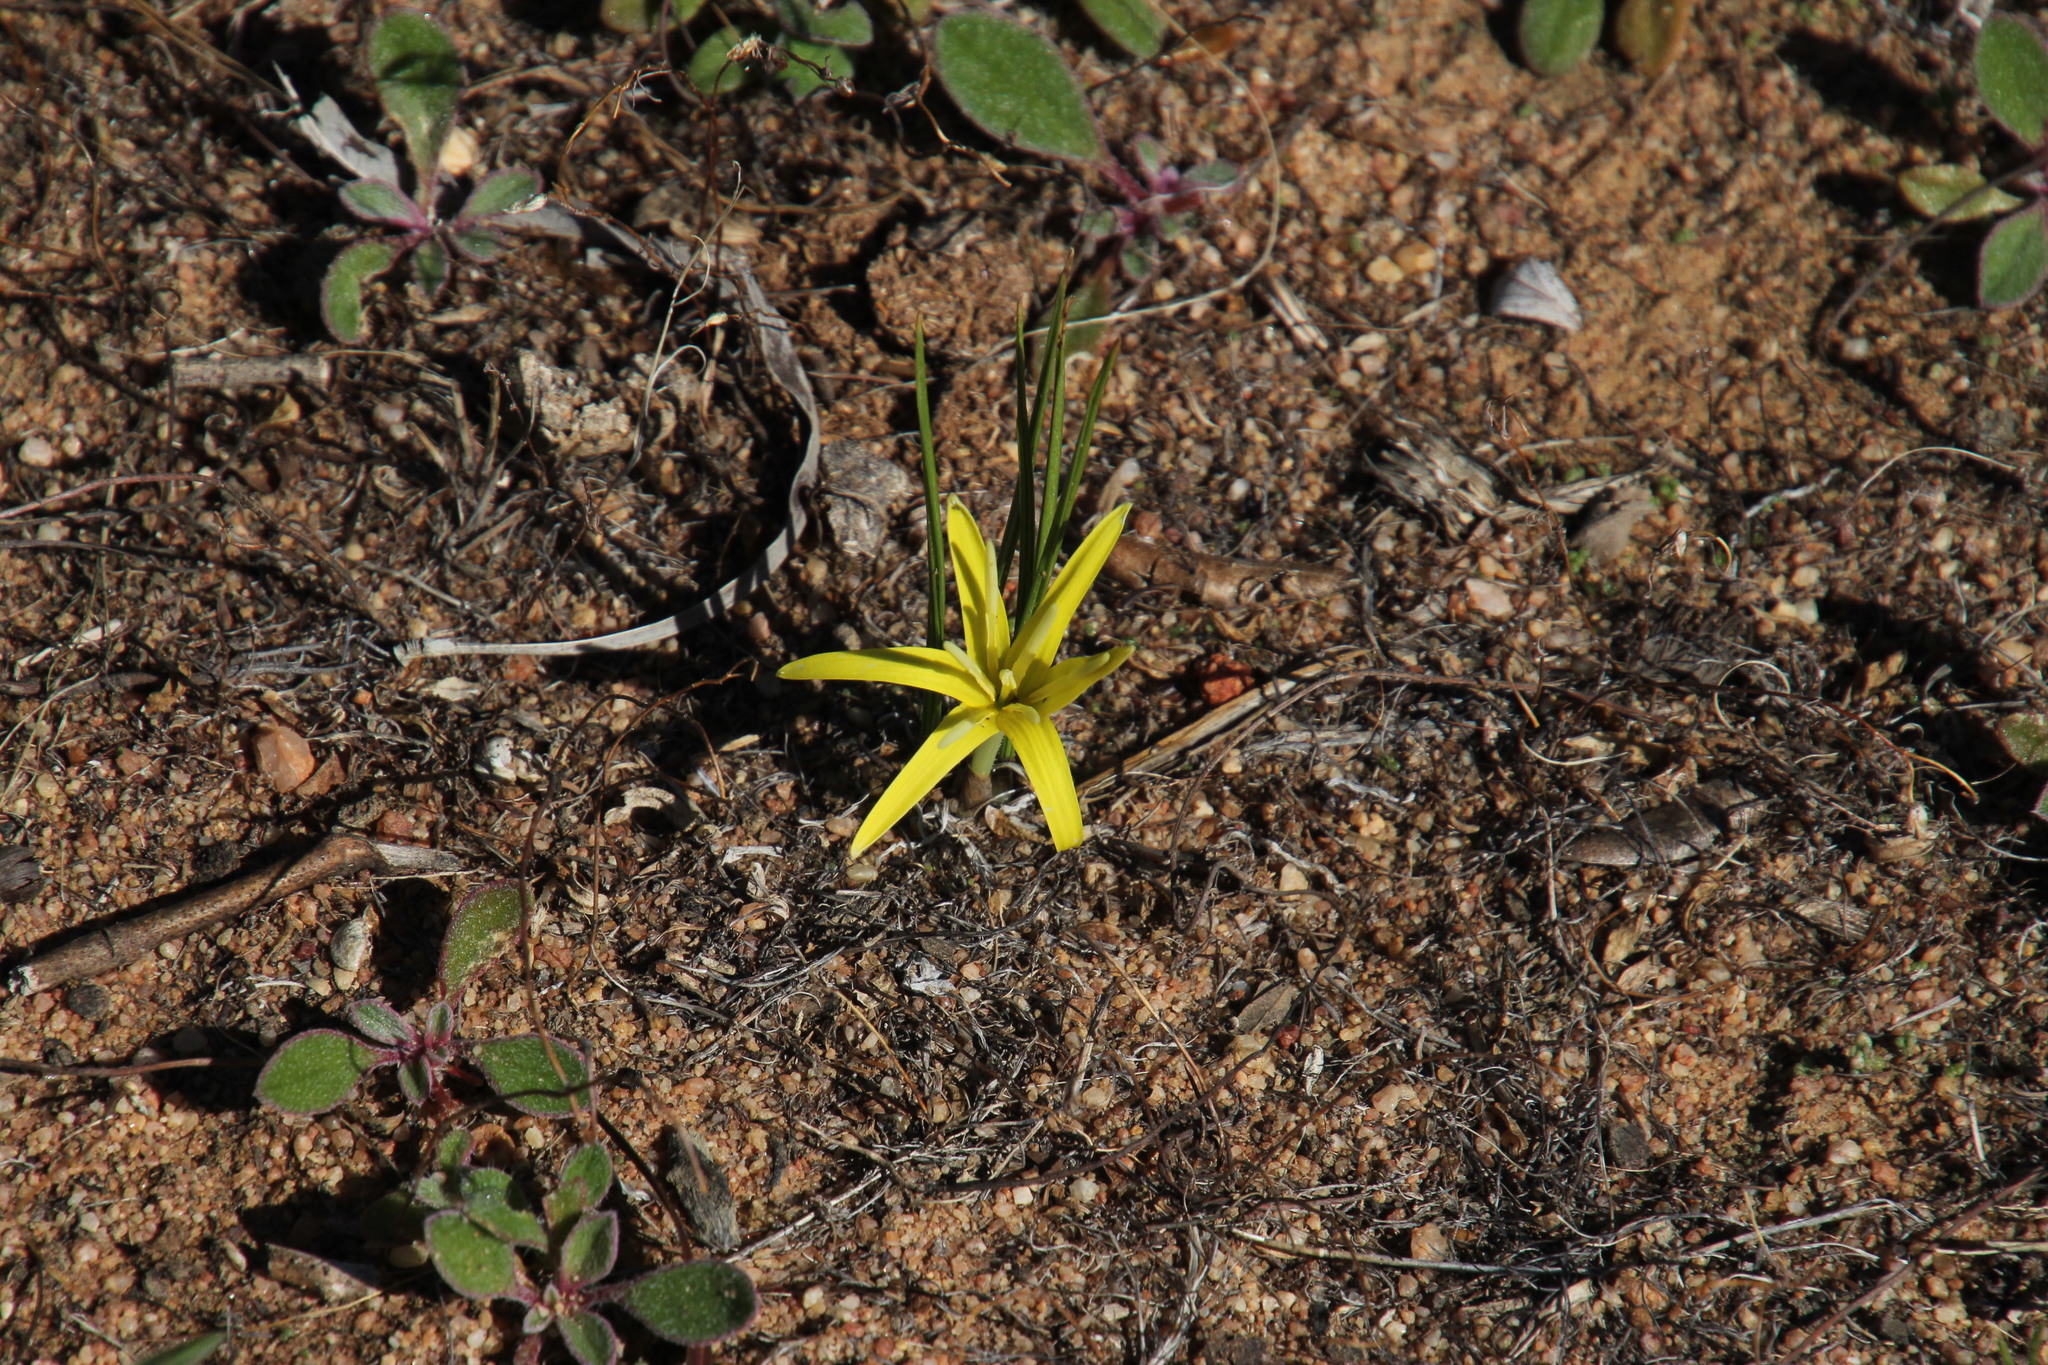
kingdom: Plantae
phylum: Tracheophyta
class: Liliopsida
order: Asparagales
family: Hypoxidaceae
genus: Empodium
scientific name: Empodium flexile
